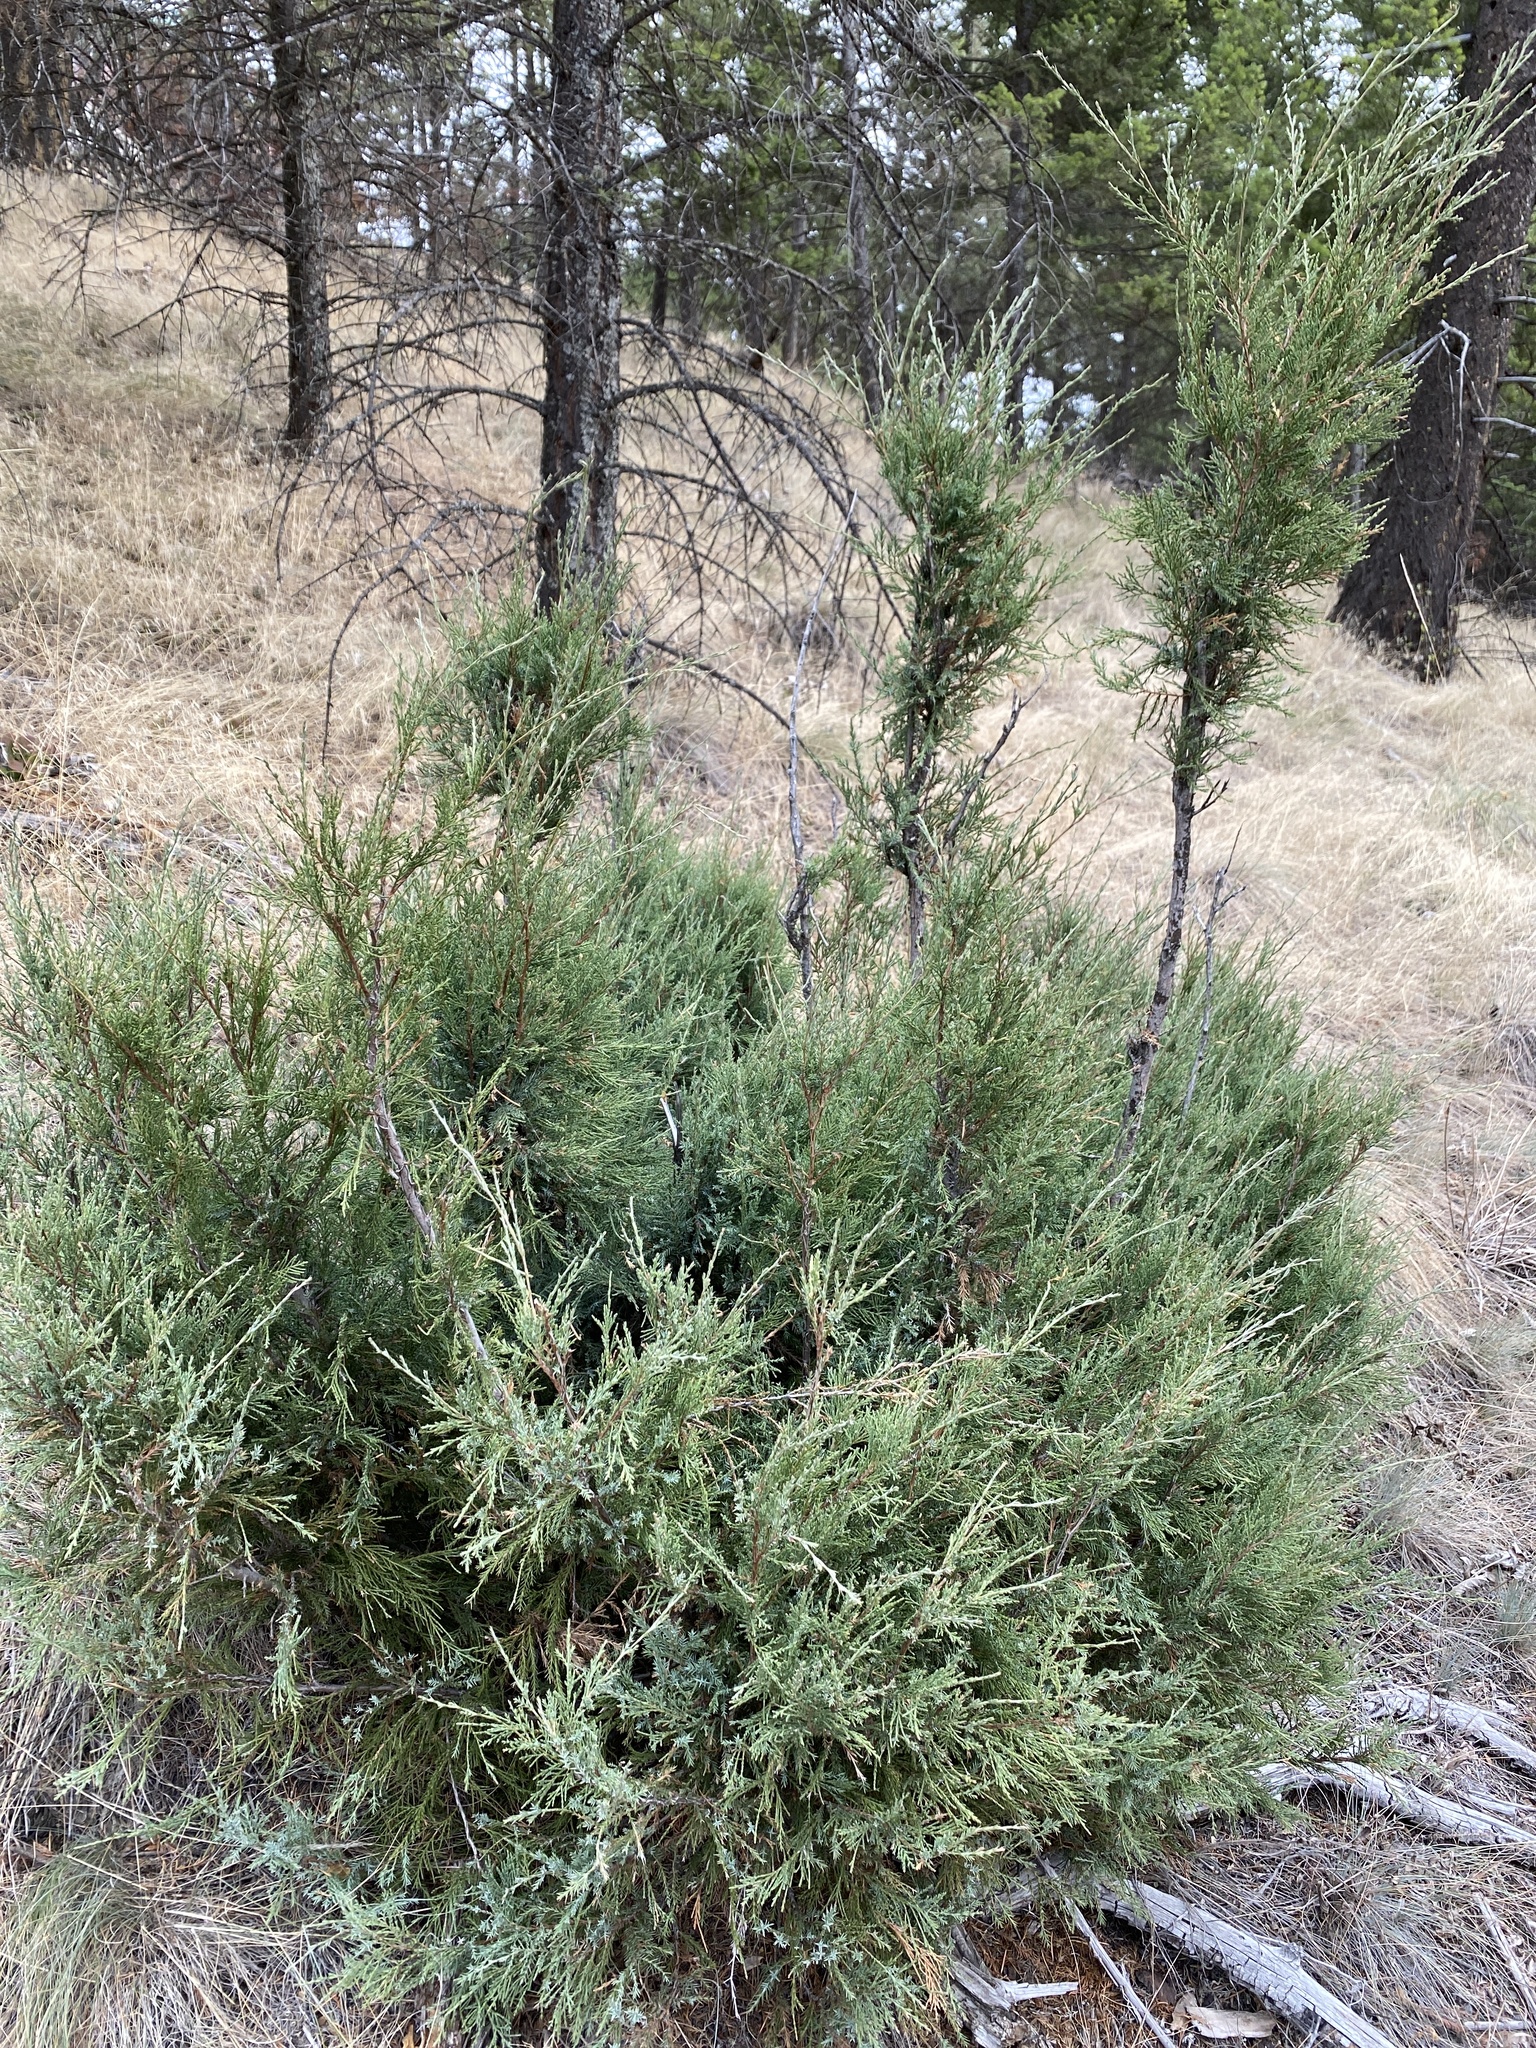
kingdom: Plantae
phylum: Tracheophyta
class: Pinopsida
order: Pinales
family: Cupressaceae
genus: Juniperus
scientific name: Juniperus scopulorum
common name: Rocky mountain juniper
